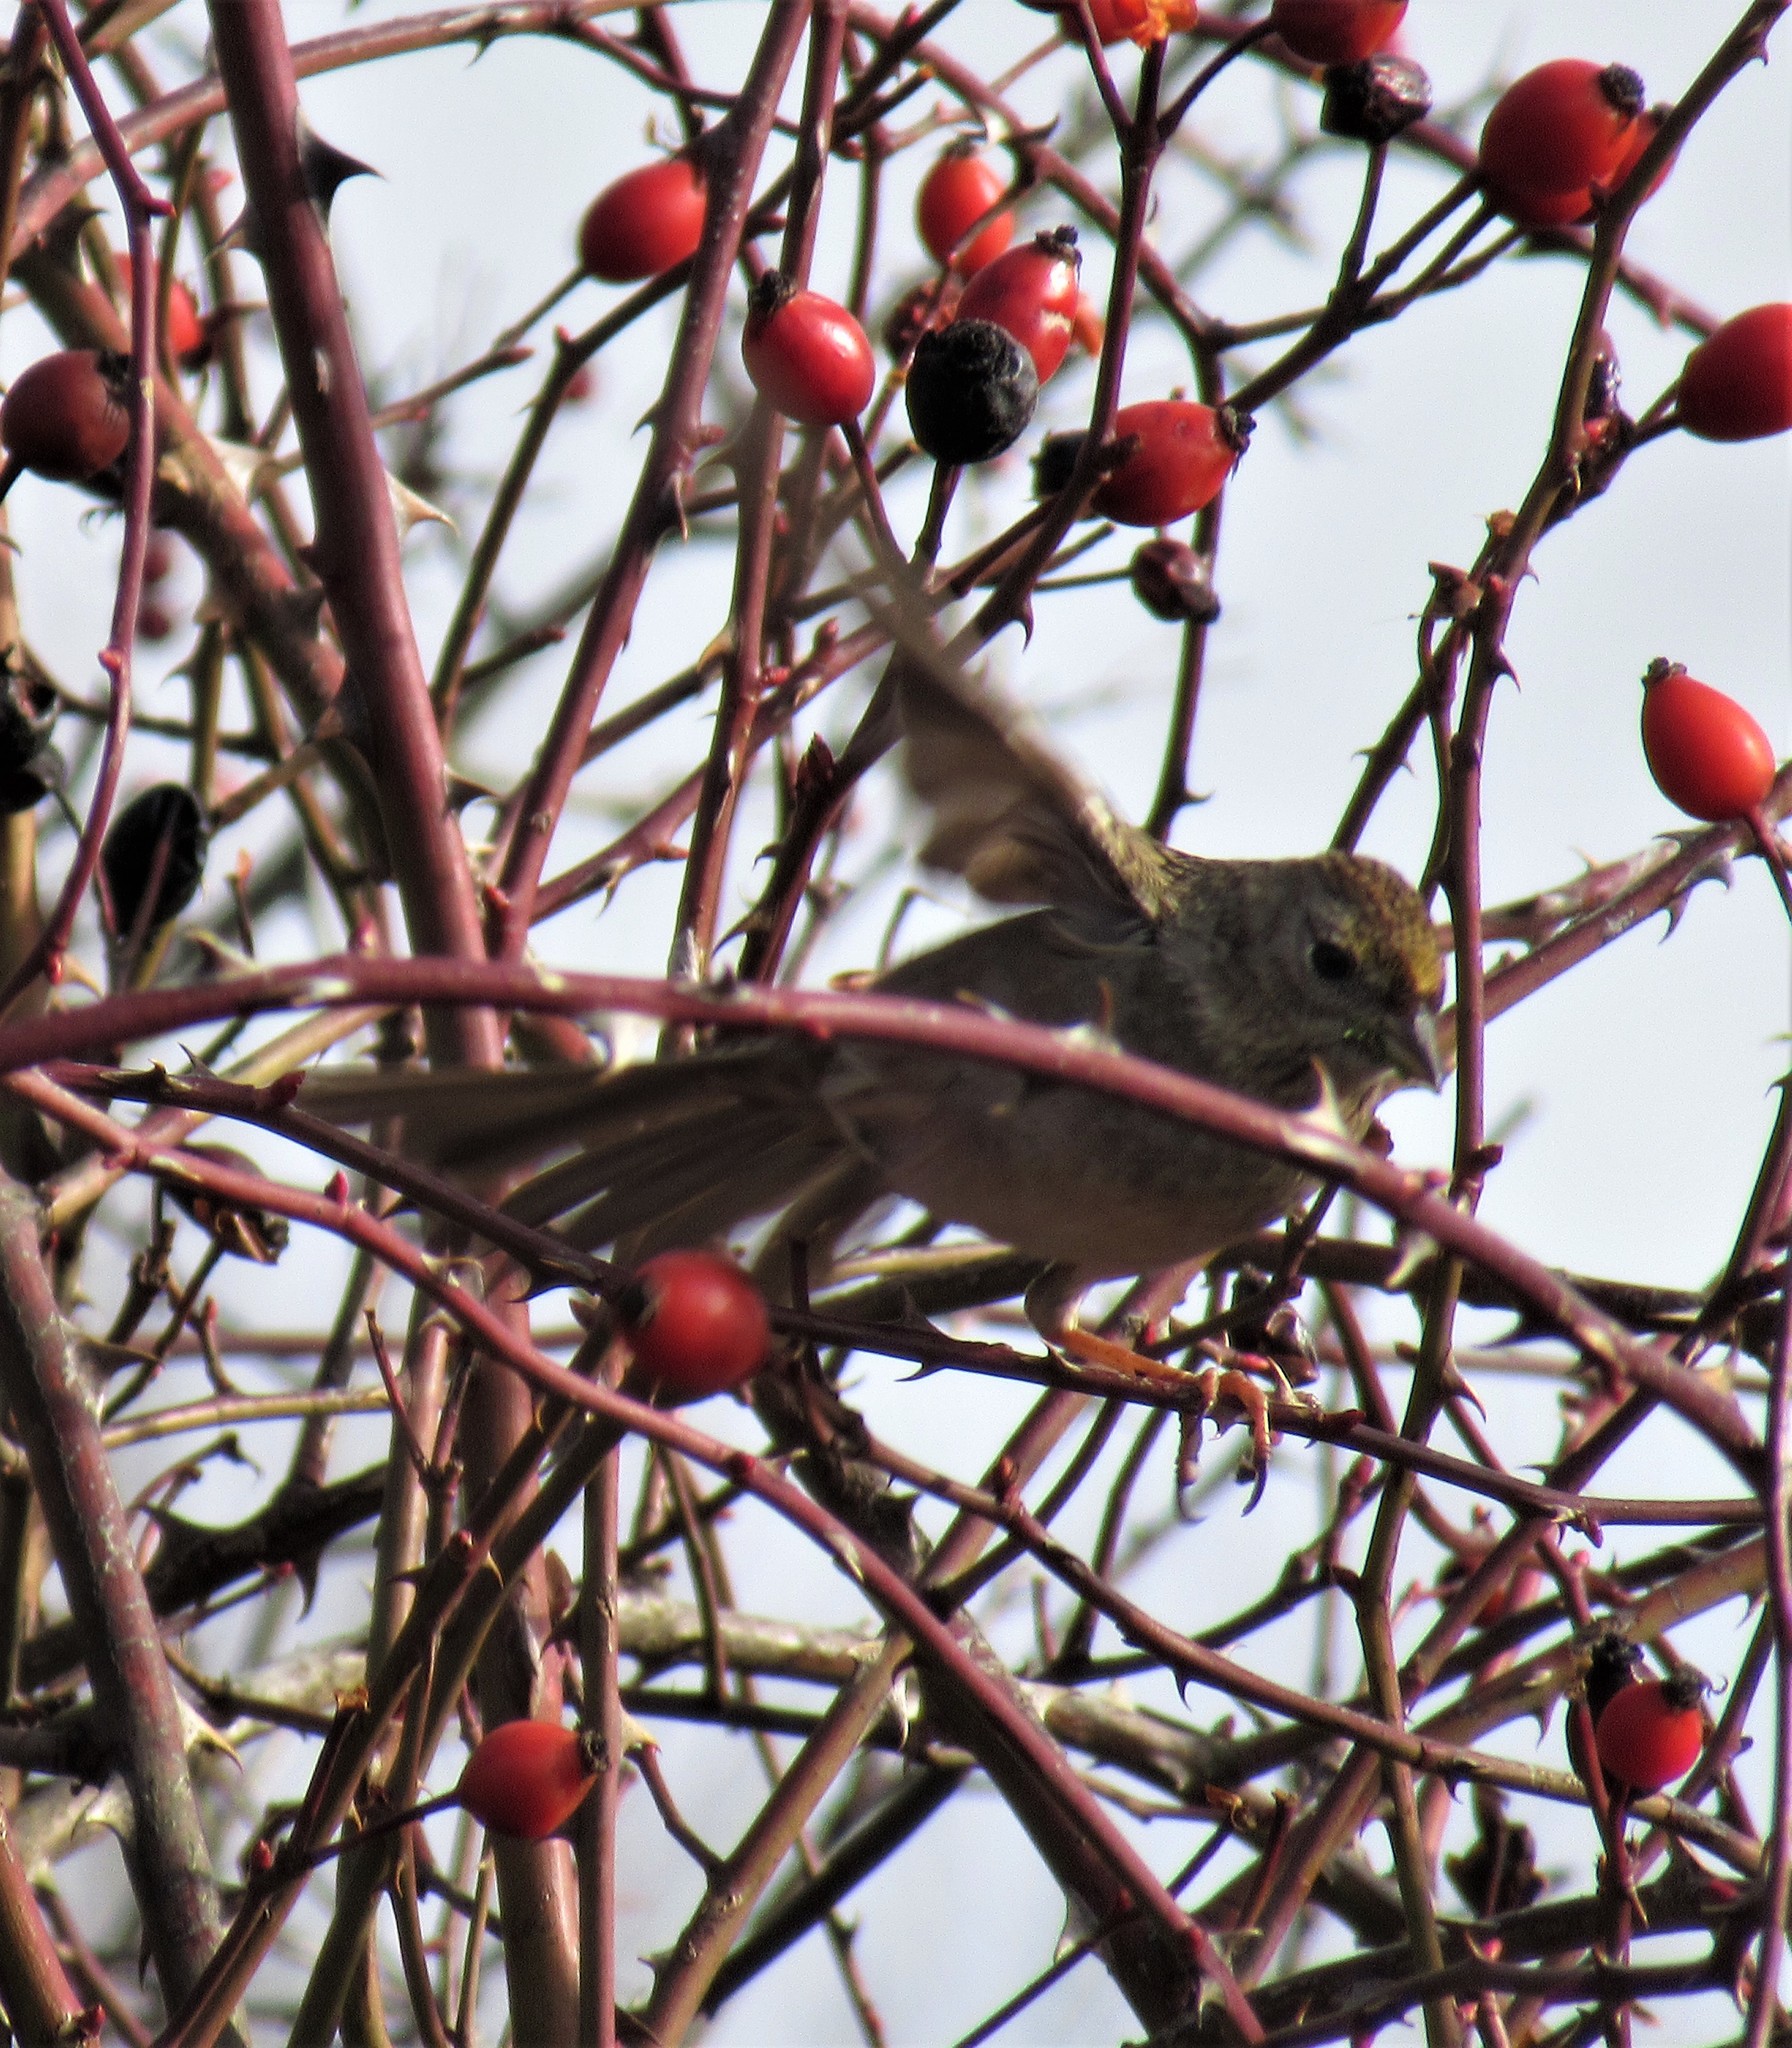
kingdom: Animalia
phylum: Chordata
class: Aves
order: Passeriformes
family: Passerellidae
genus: Zonotrichia
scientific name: Zonotrichia atricapilla
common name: Golden-crowned sparrow
